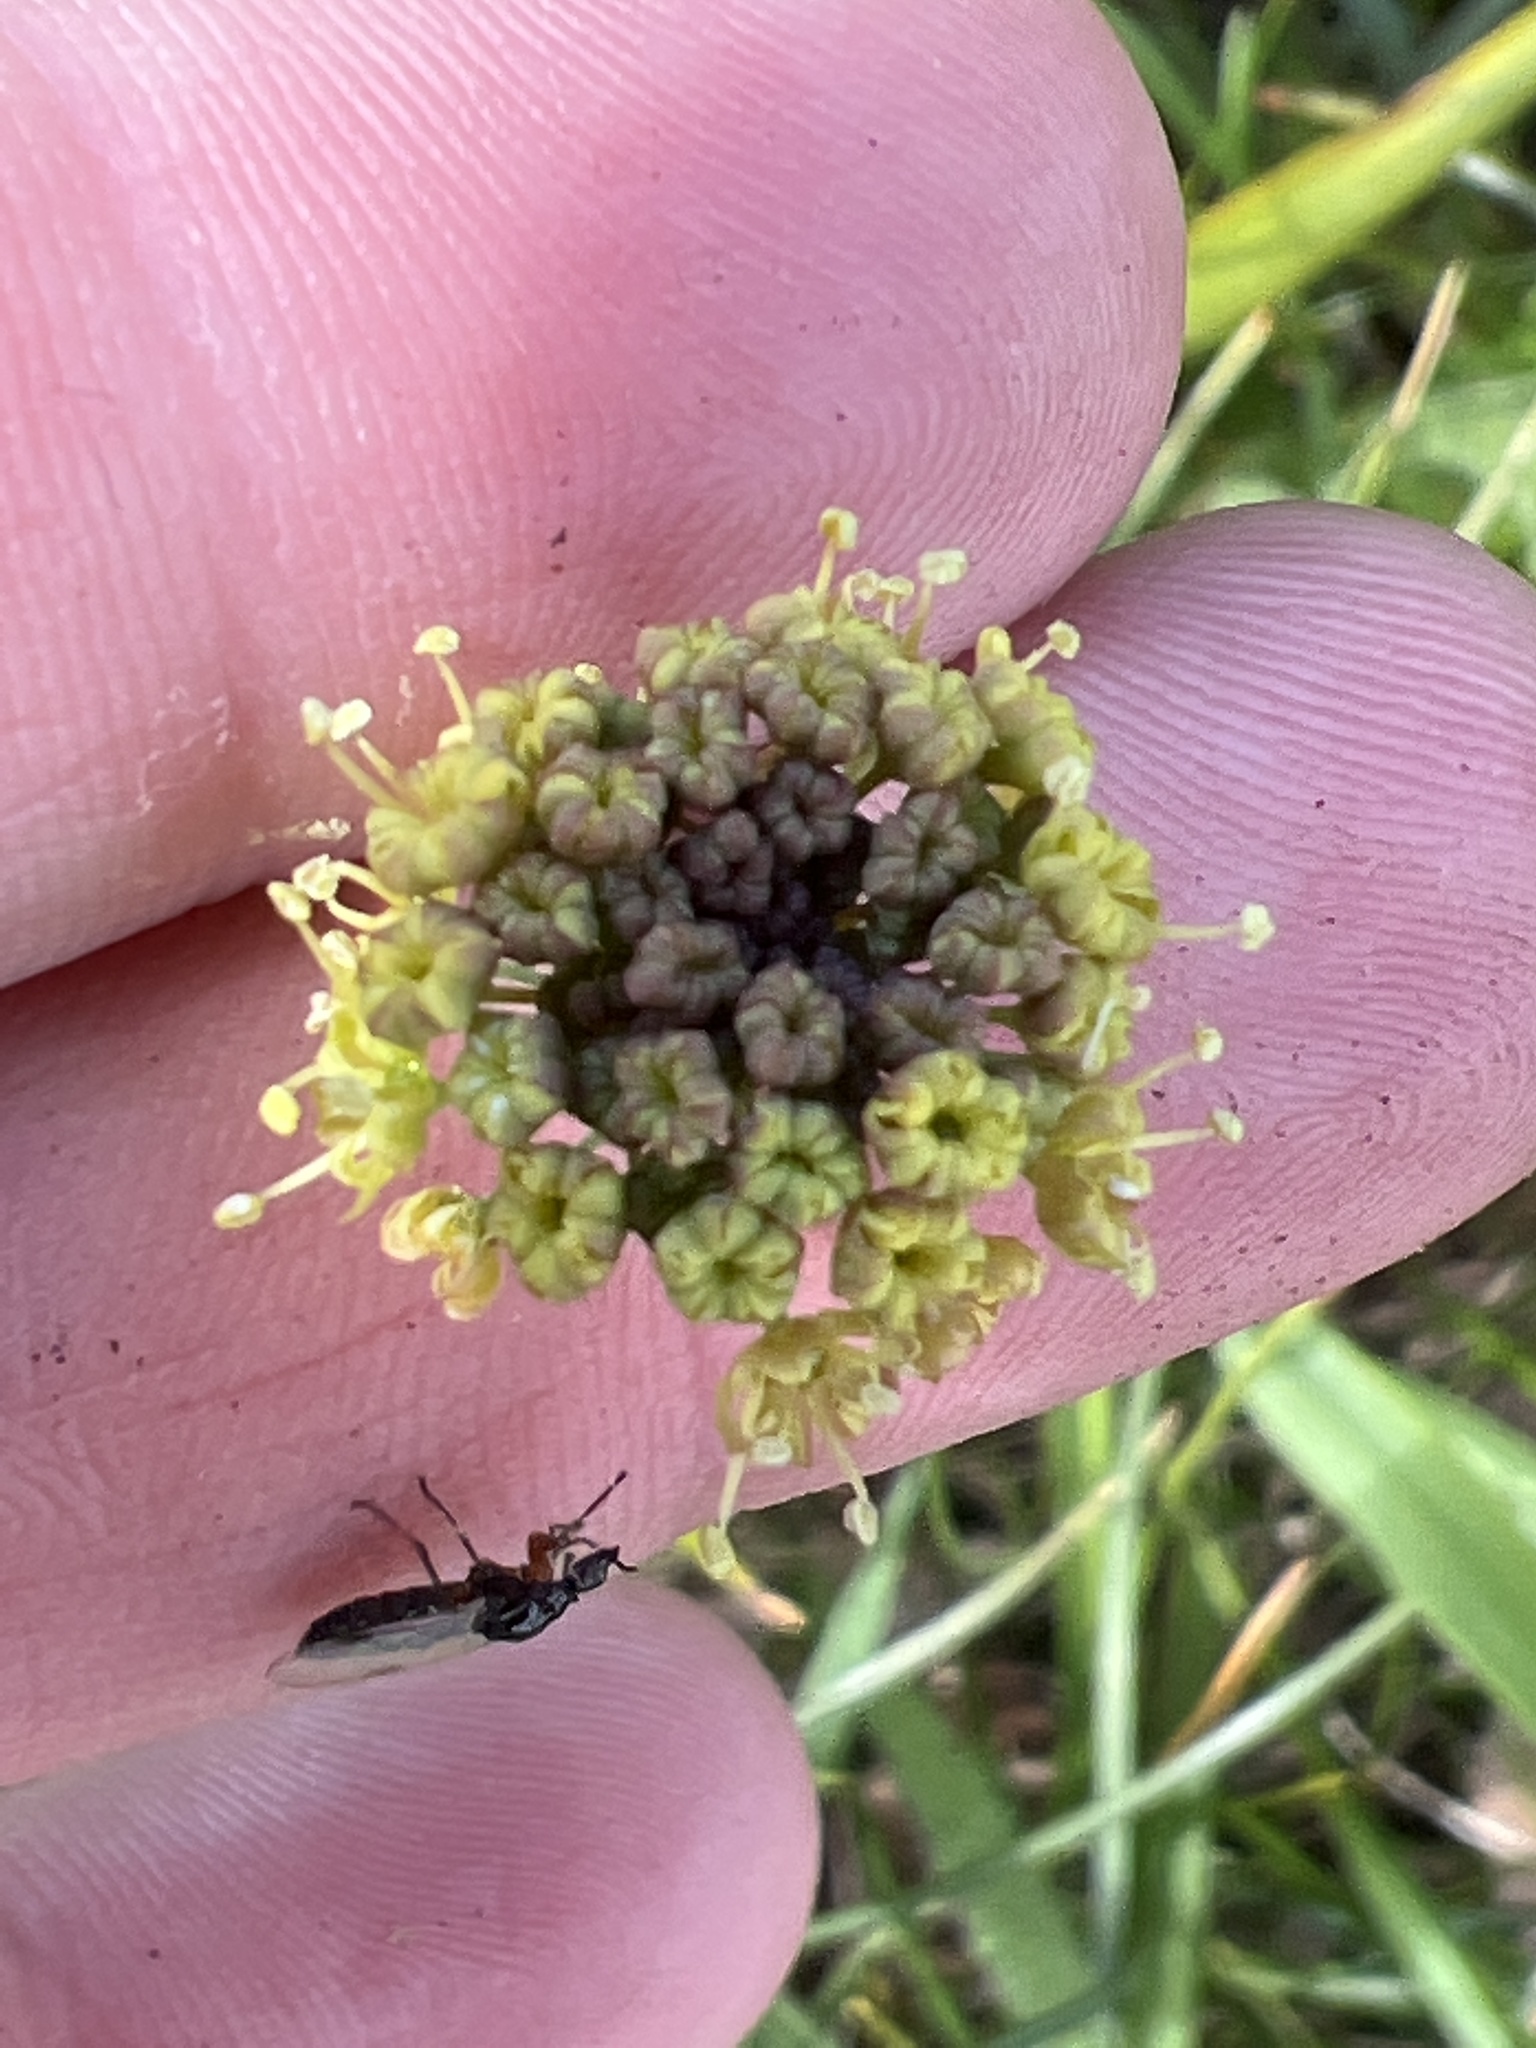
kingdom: Plantae
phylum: Tracheophyta
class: Magnoliopsida
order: Apiales
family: Apiaceae
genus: Lomatium
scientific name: Lomatium nudicaule
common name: Pestle lomatium
